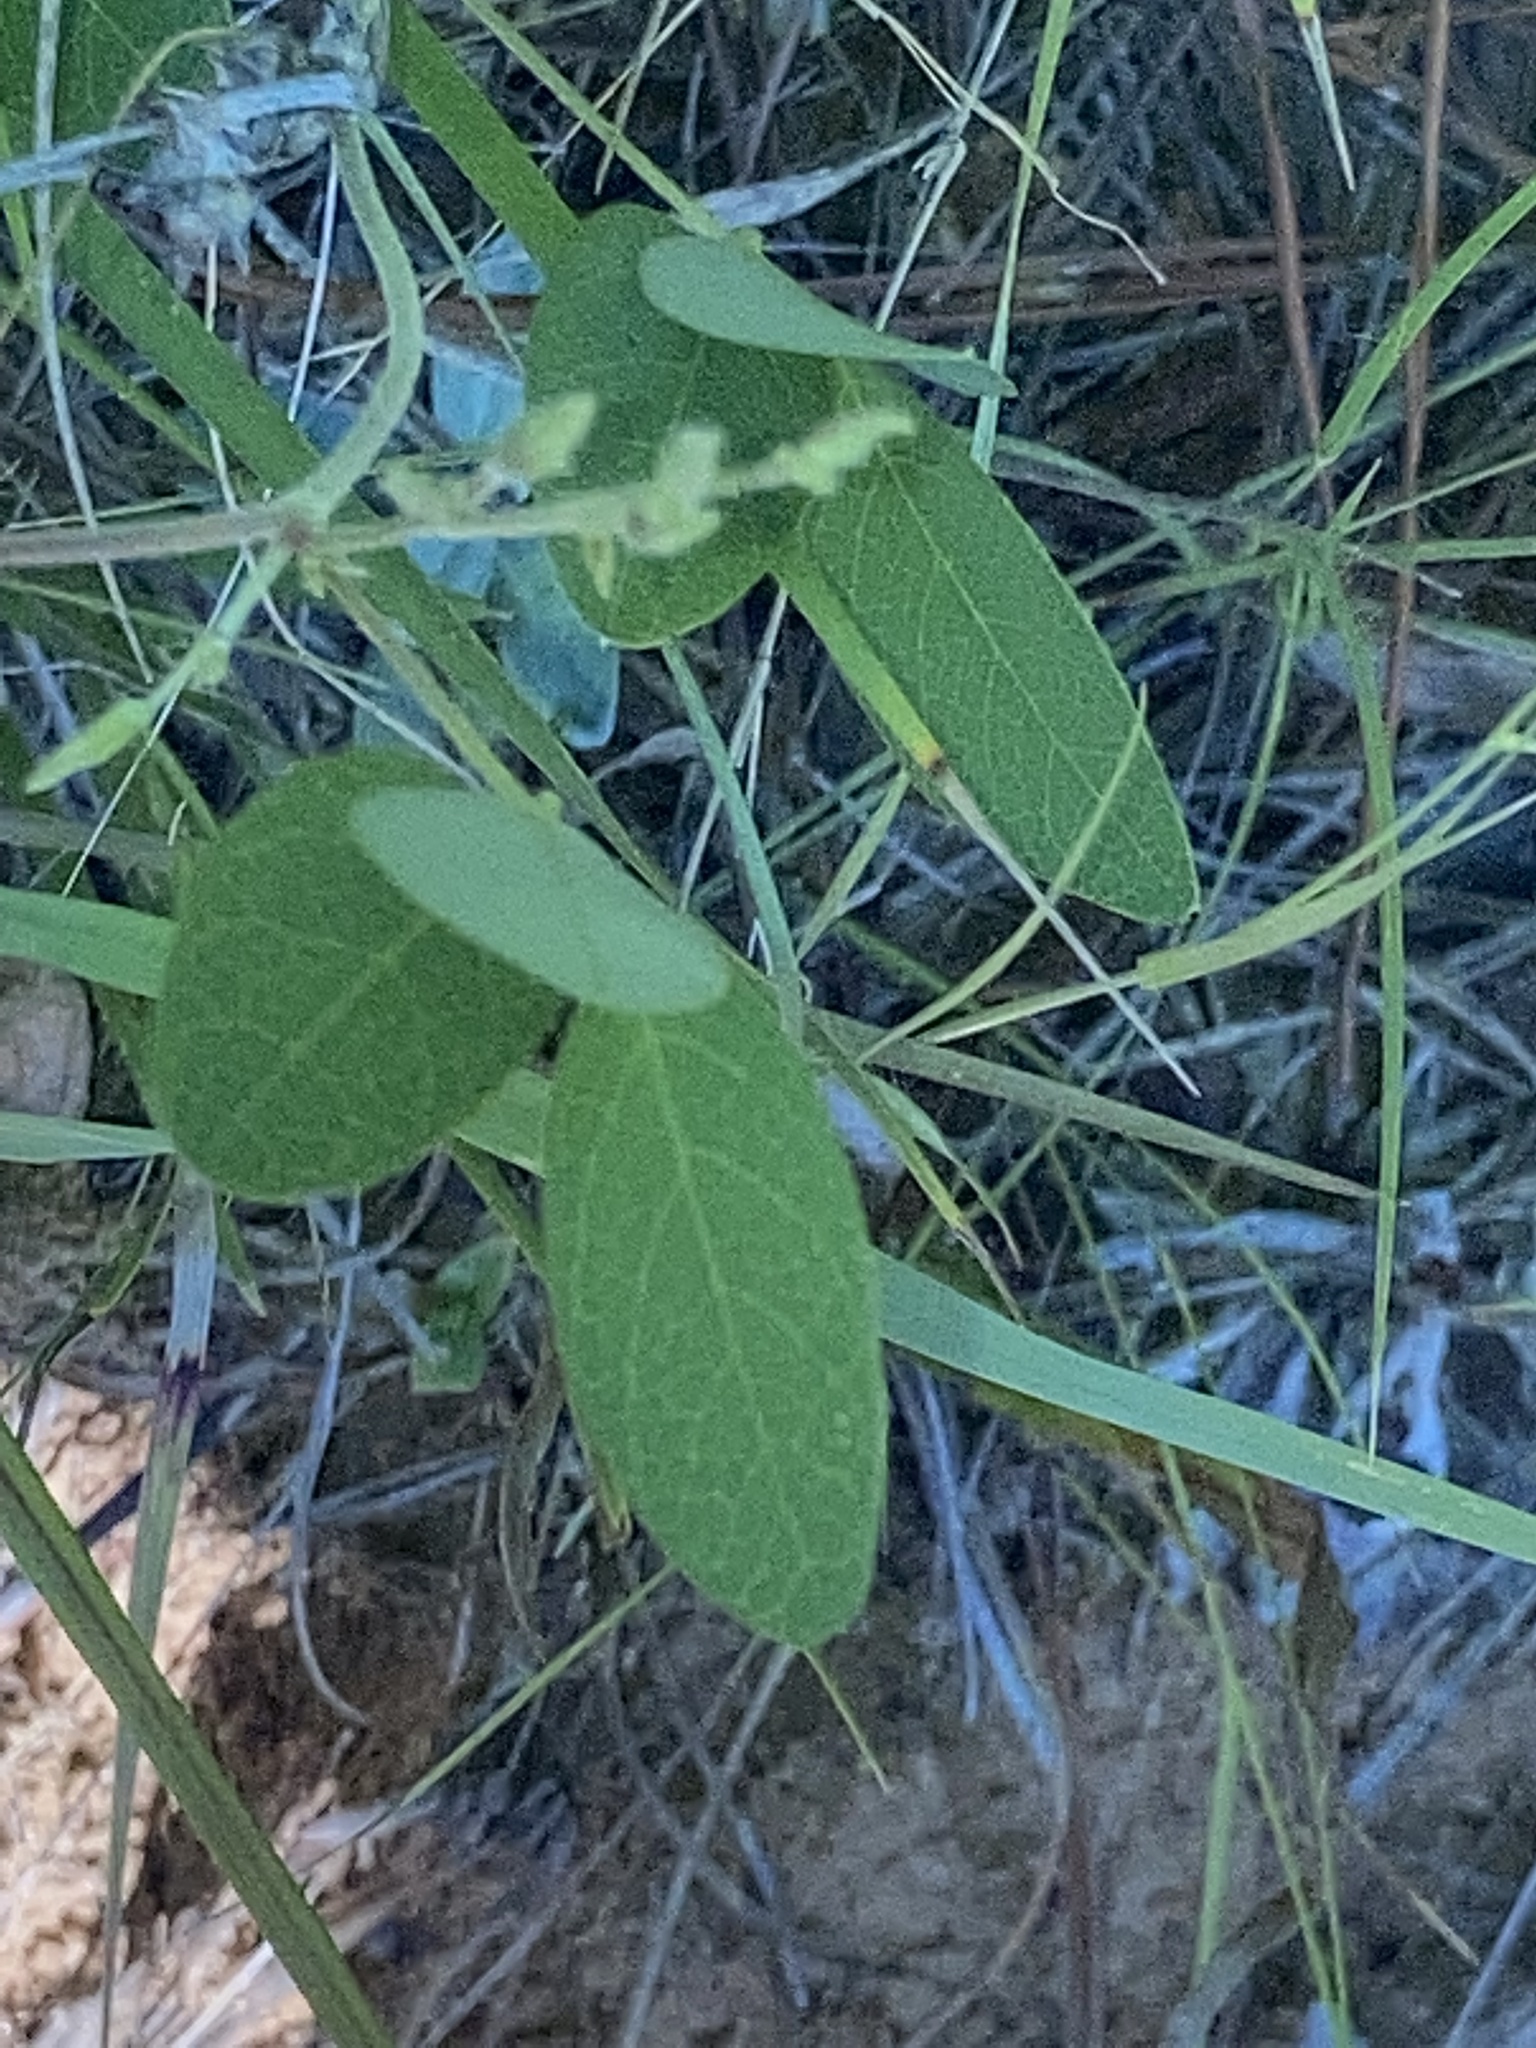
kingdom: Plantae
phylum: Tracheophyta
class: Magnoliopsida
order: Fabales
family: Fabaceae
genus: Galactia
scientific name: Galactia regularis
